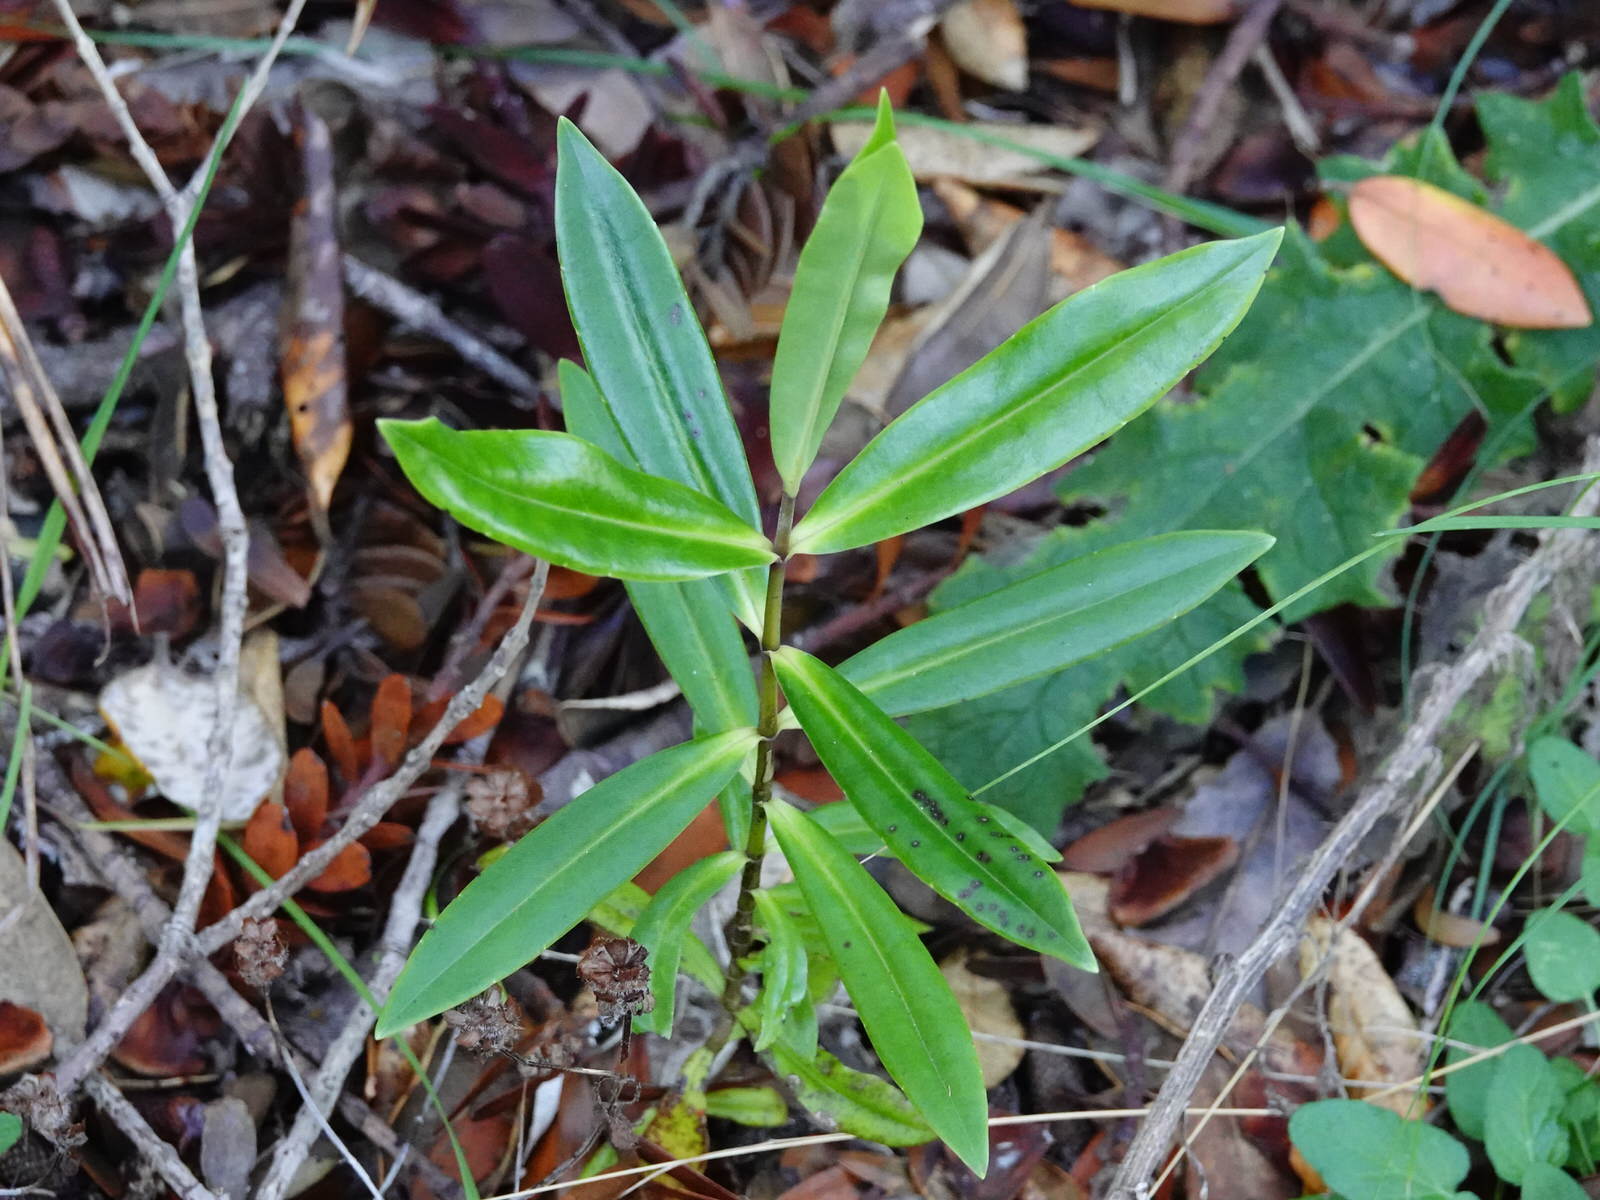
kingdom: Plantae
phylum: Tracheophyta
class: Magnoliopsida
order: Lamiales
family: Plantaginaceae
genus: Veronica
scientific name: Veronica macrocarpa
